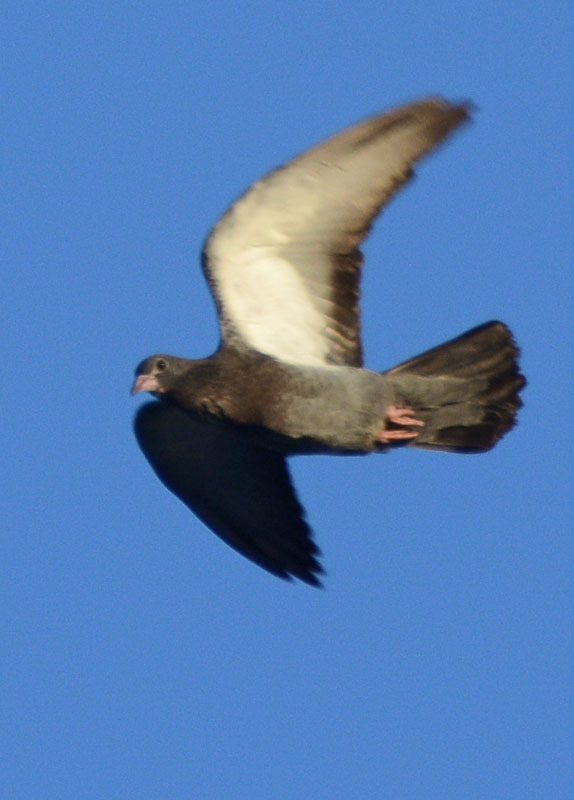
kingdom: Animalia
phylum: Chordata
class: Aves
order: Columbiformes
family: Columbidae
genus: Columba
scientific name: Columba livia
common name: Rock pigeon
